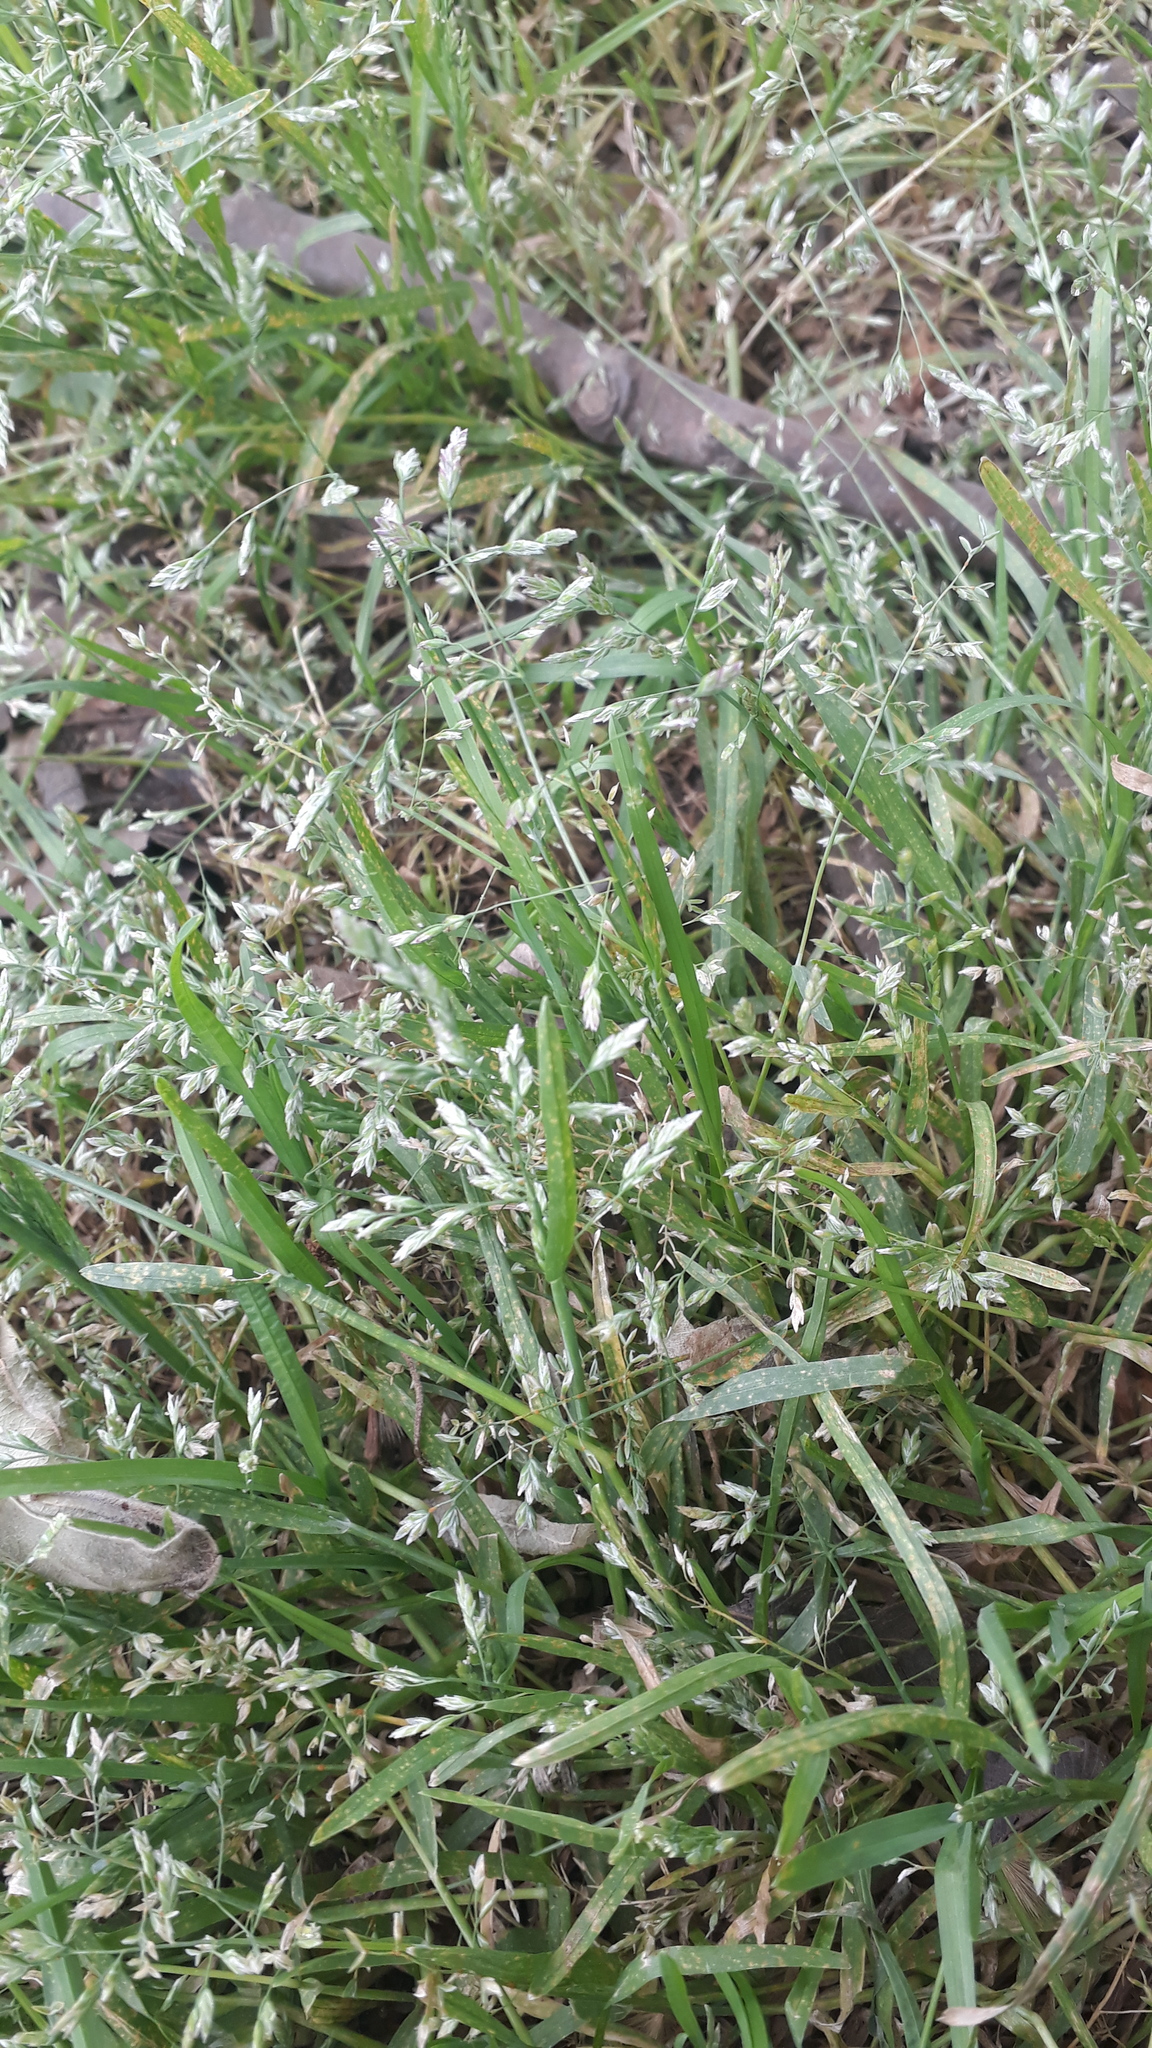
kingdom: Plantae
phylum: Tracheophyta
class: Liliopsida
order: Poales
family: Poaceae
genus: Poa
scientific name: Poa annua
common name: Annual bluegrass
